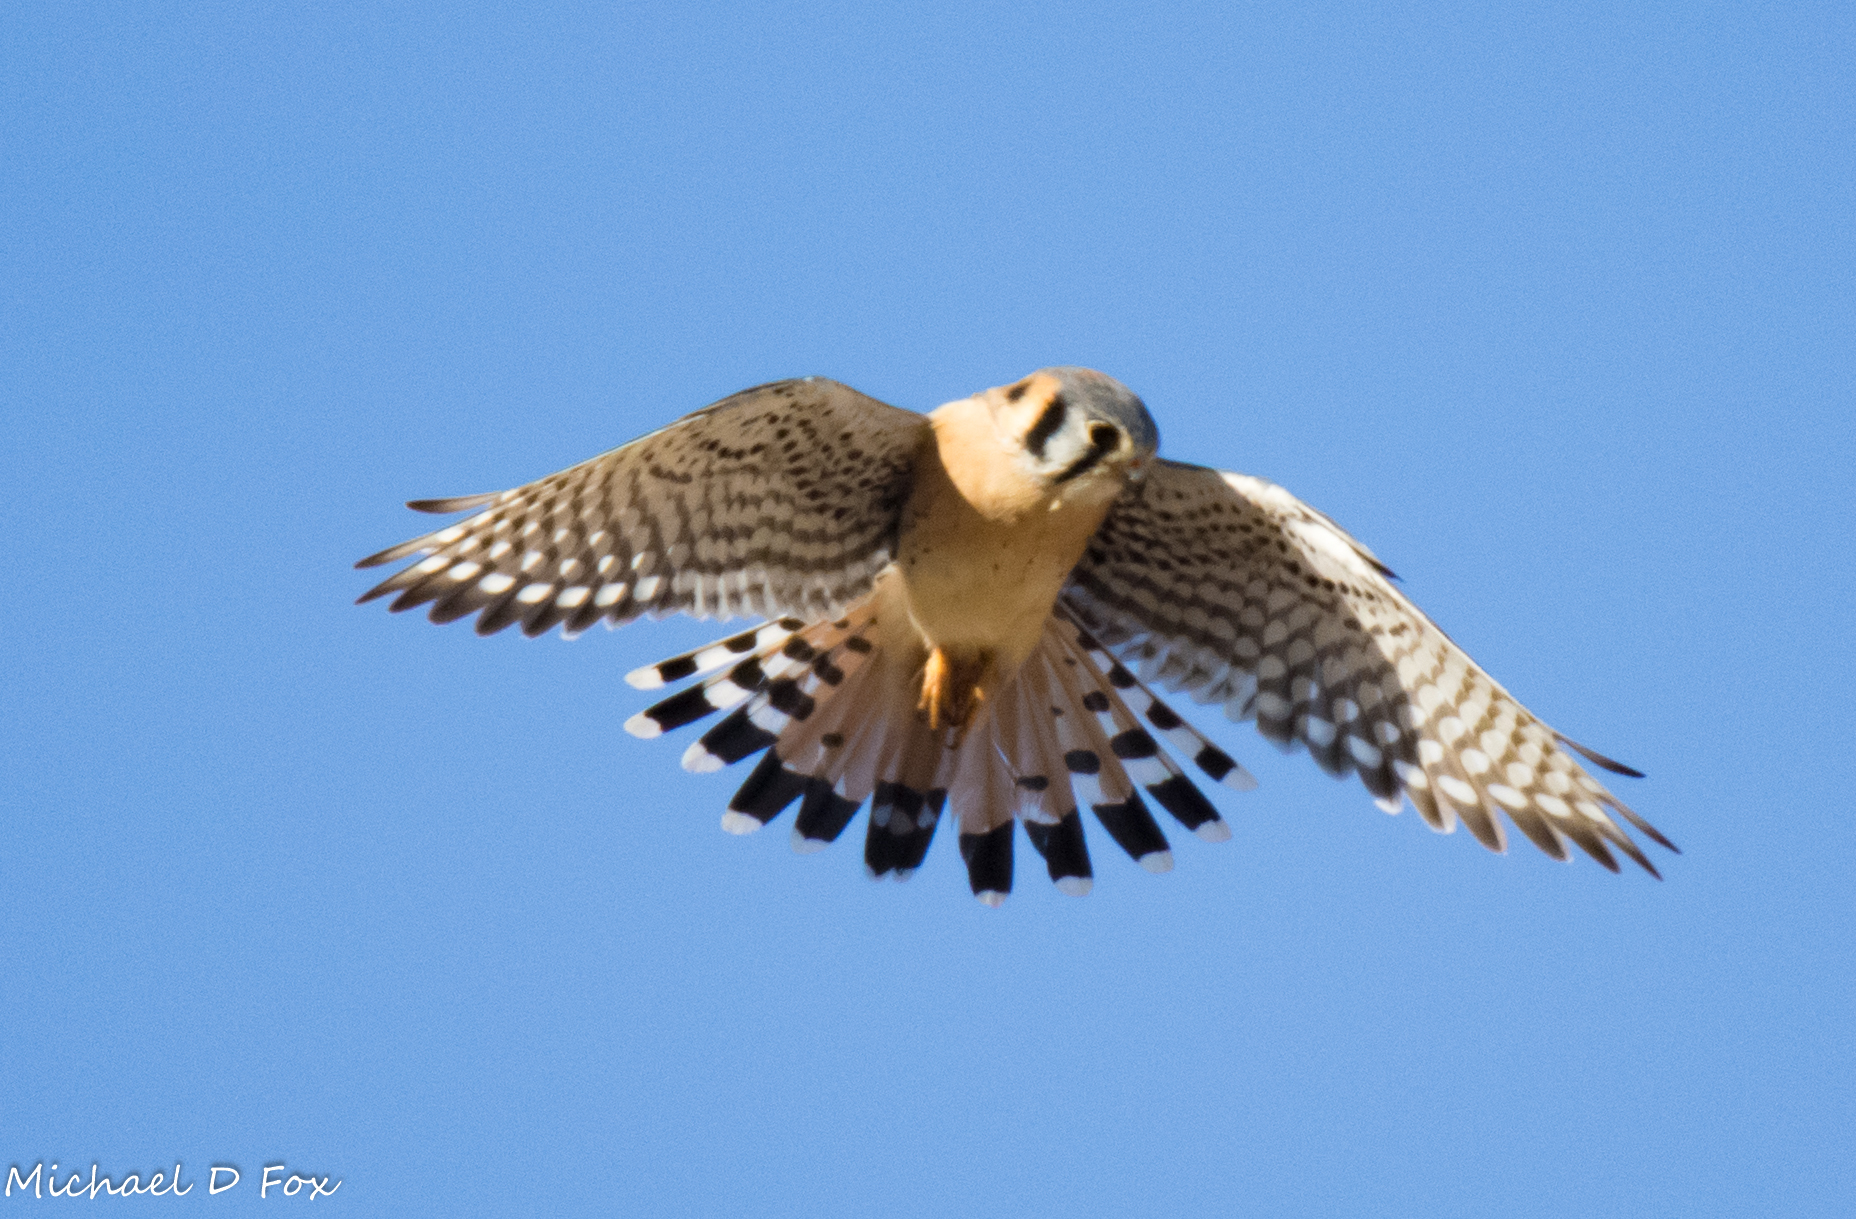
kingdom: Animalia
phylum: Chordata
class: Aves
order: Falconiformes
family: Falconidae
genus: Falco
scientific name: Falco sparverius
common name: American kestrel
